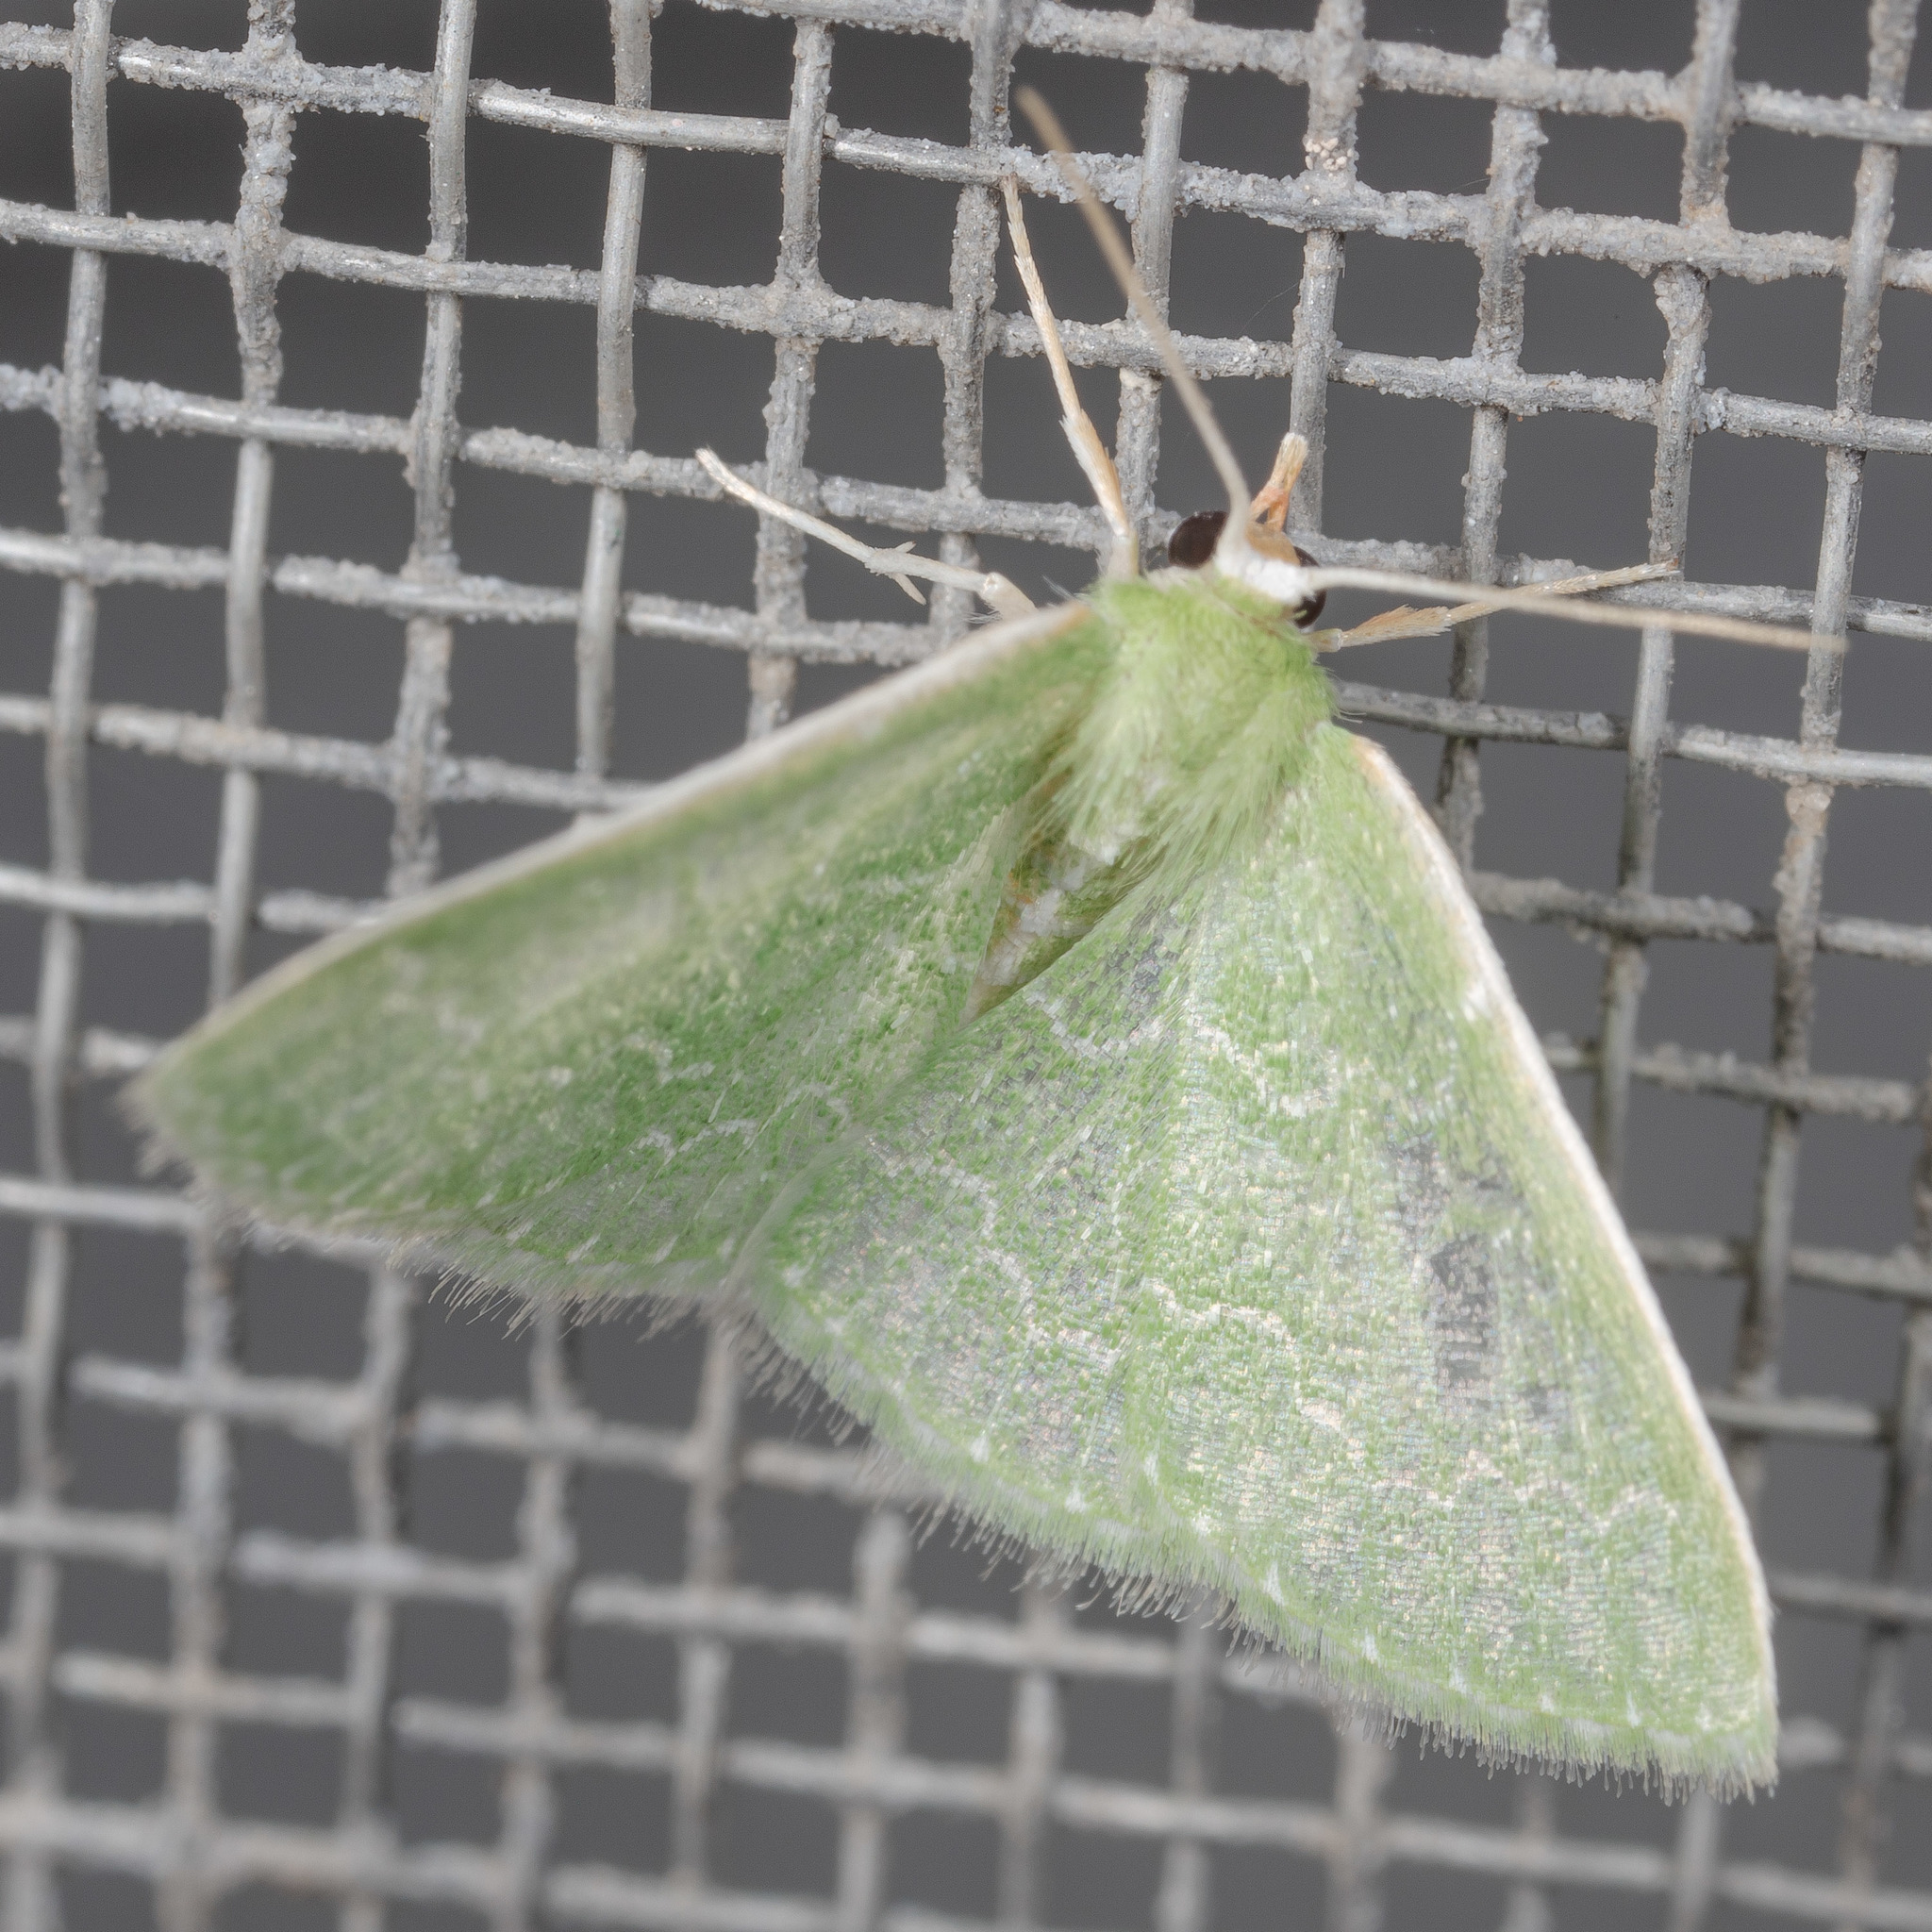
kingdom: Animalia
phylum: Arthropoda
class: Insecta
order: Lepidoptera
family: Geometridae
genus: Synchlora
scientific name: Synchlora frondaria
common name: Southern emerald
